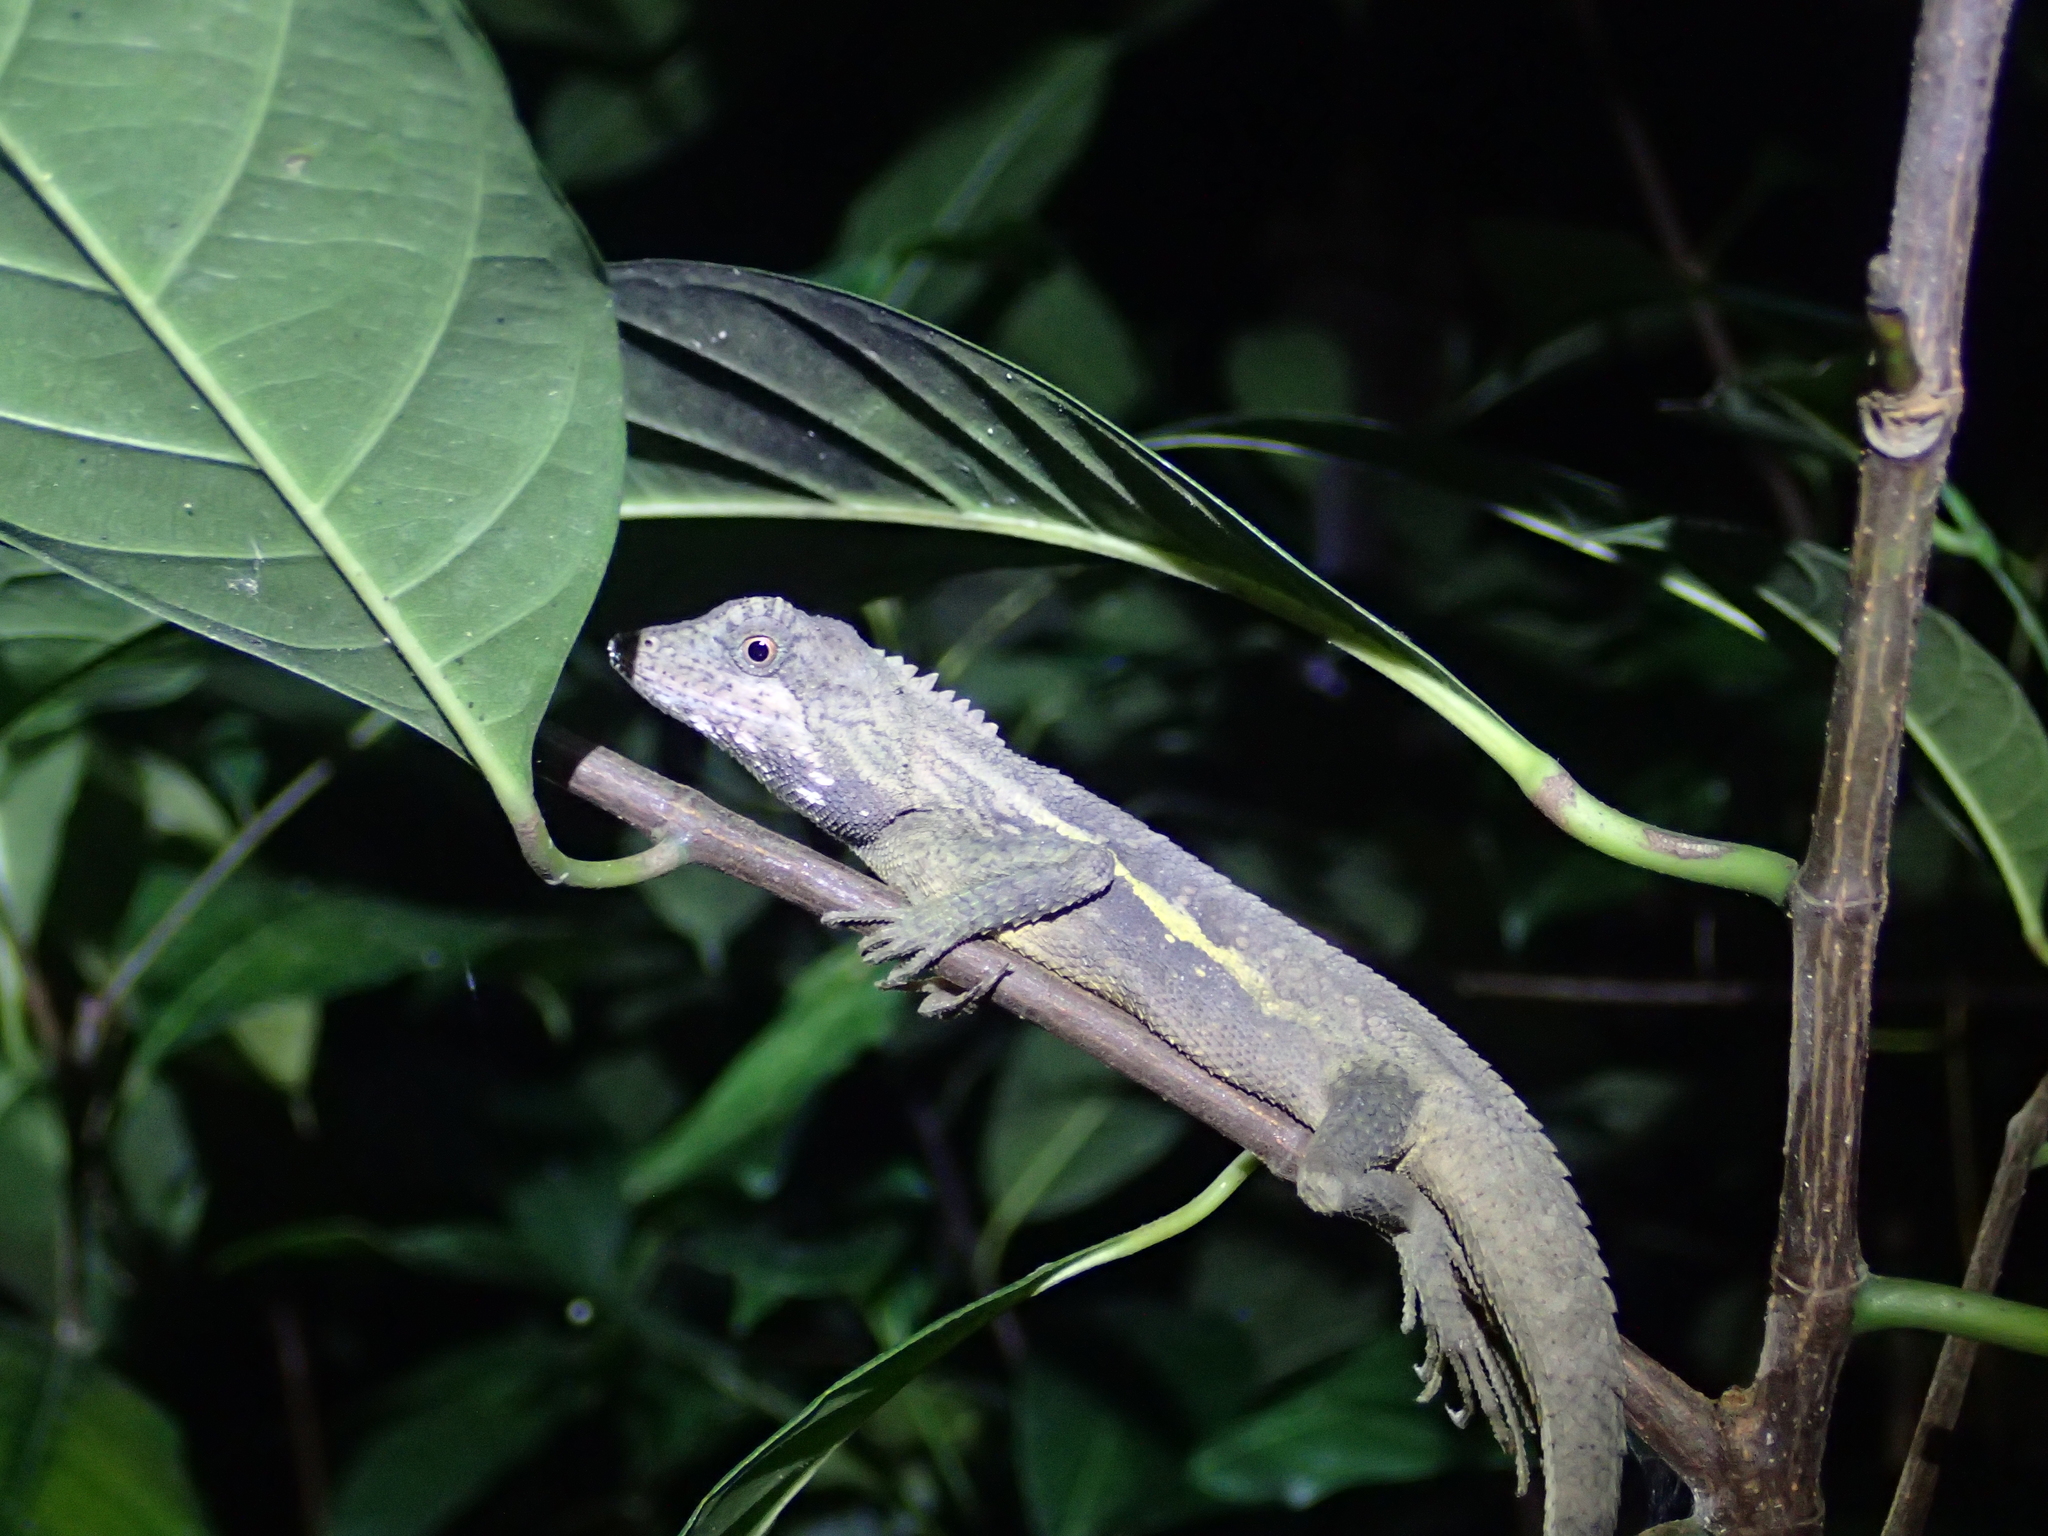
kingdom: Animalia
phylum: Chordata
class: Squamata
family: Agamidae
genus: Diploderma
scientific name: Diploderma swinhonis
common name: Taiwan japalure
